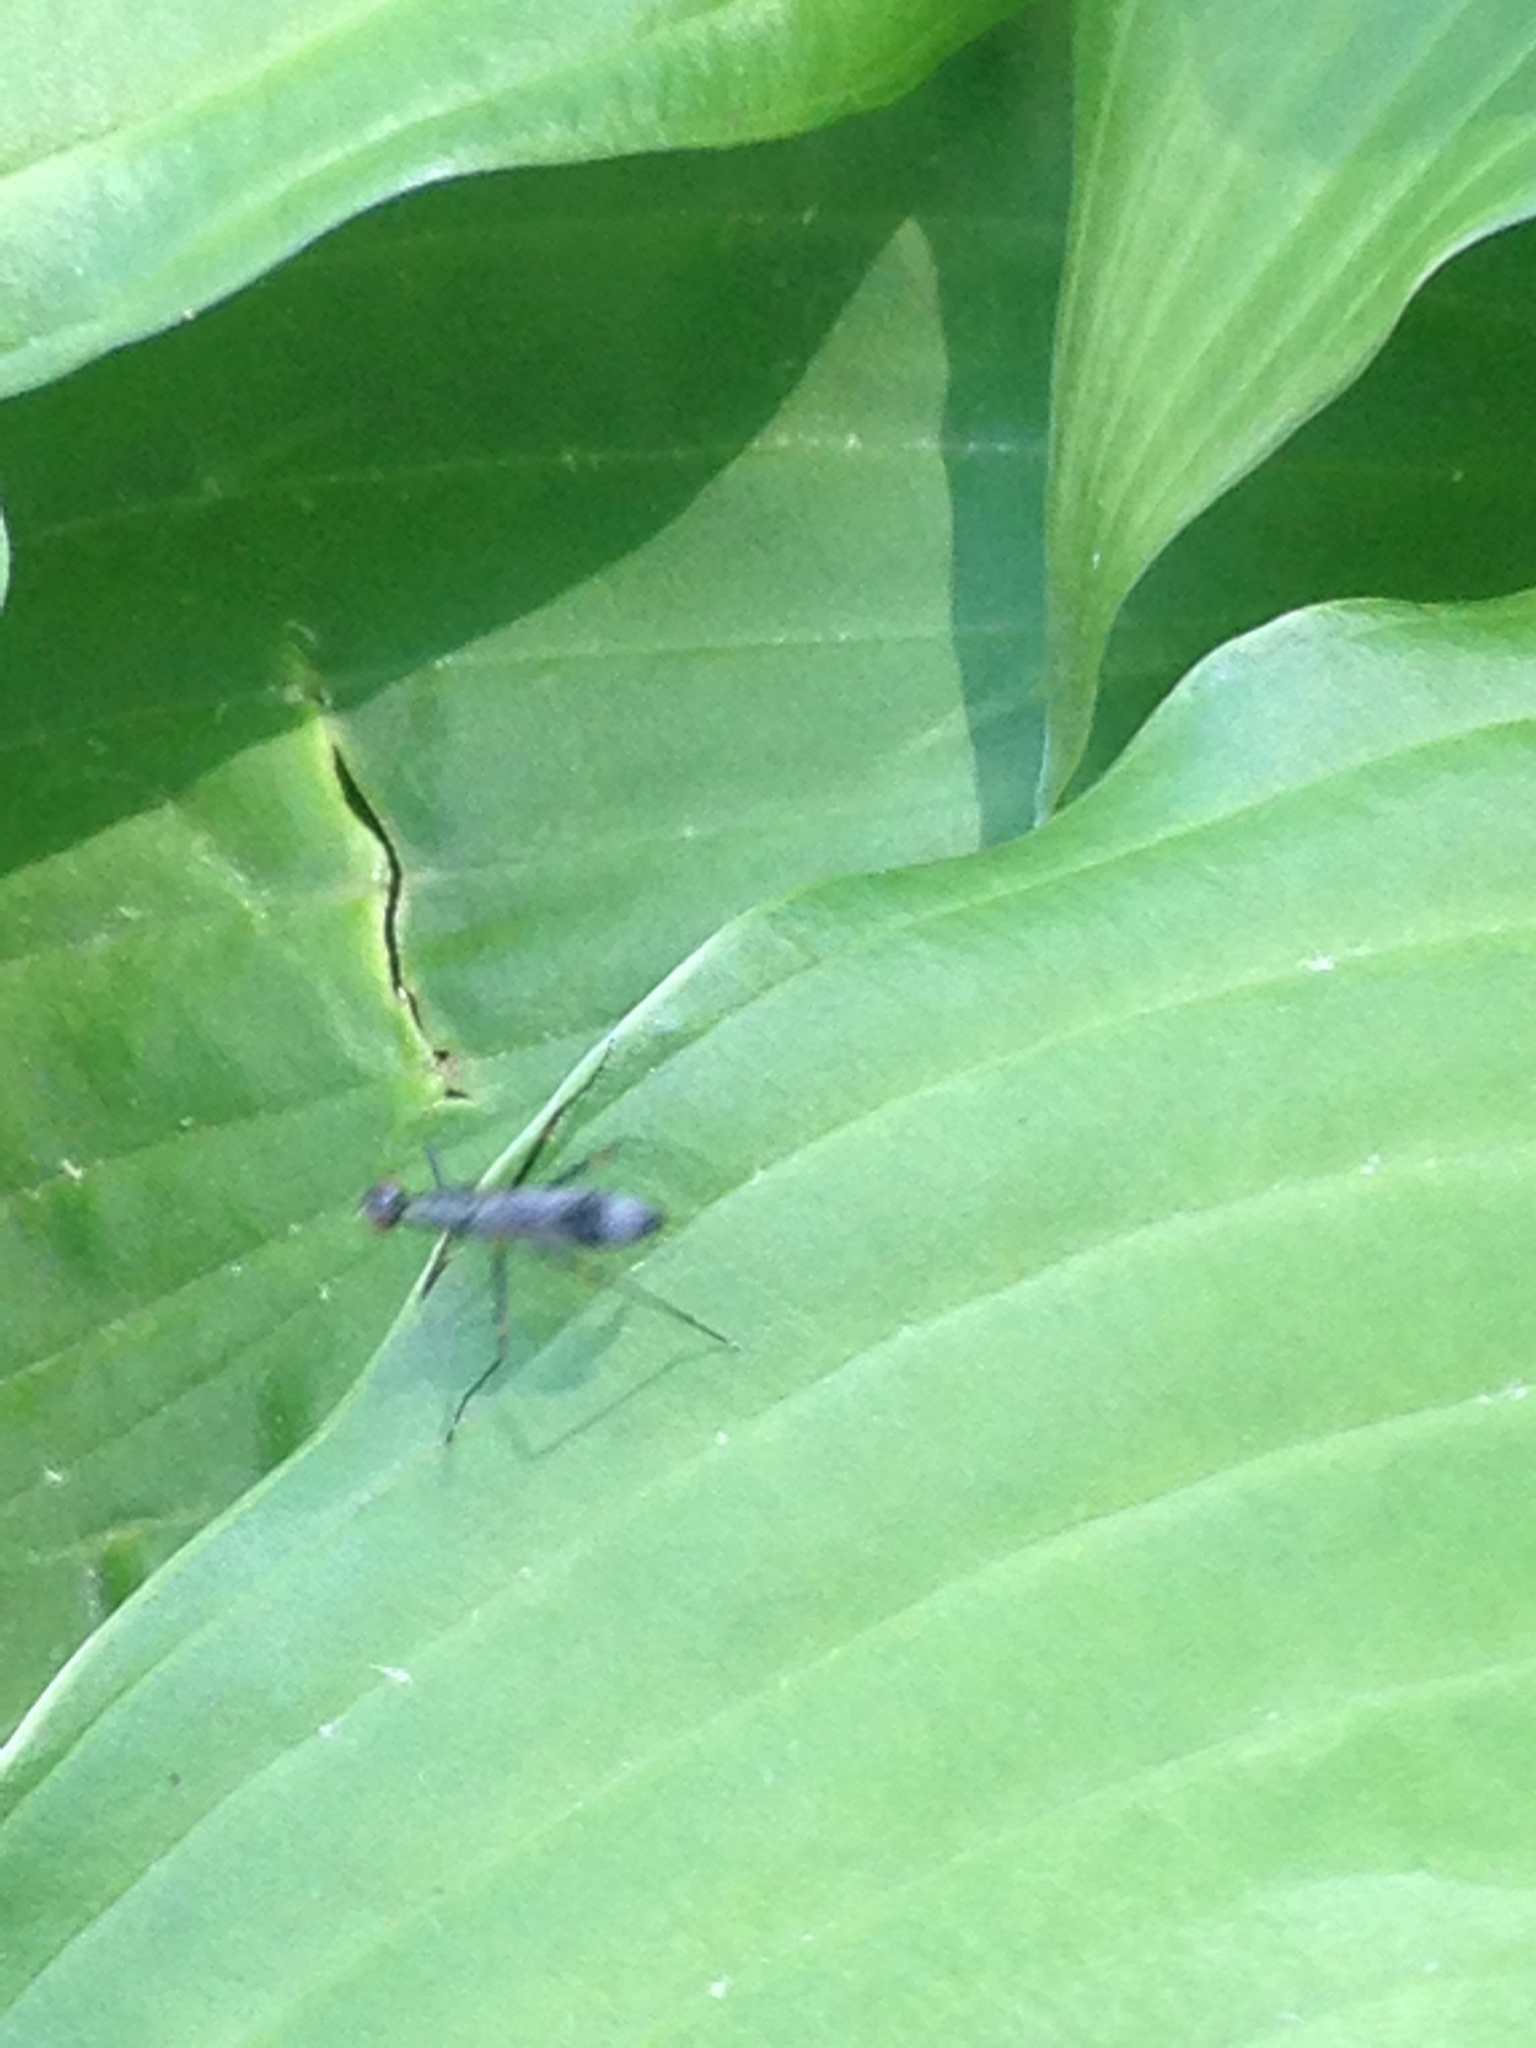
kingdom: Animalia
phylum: Arthropoda
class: Insecta
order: Diptera
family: Micropezidae
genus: Rainieria
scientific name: Rainieria antennaepes
